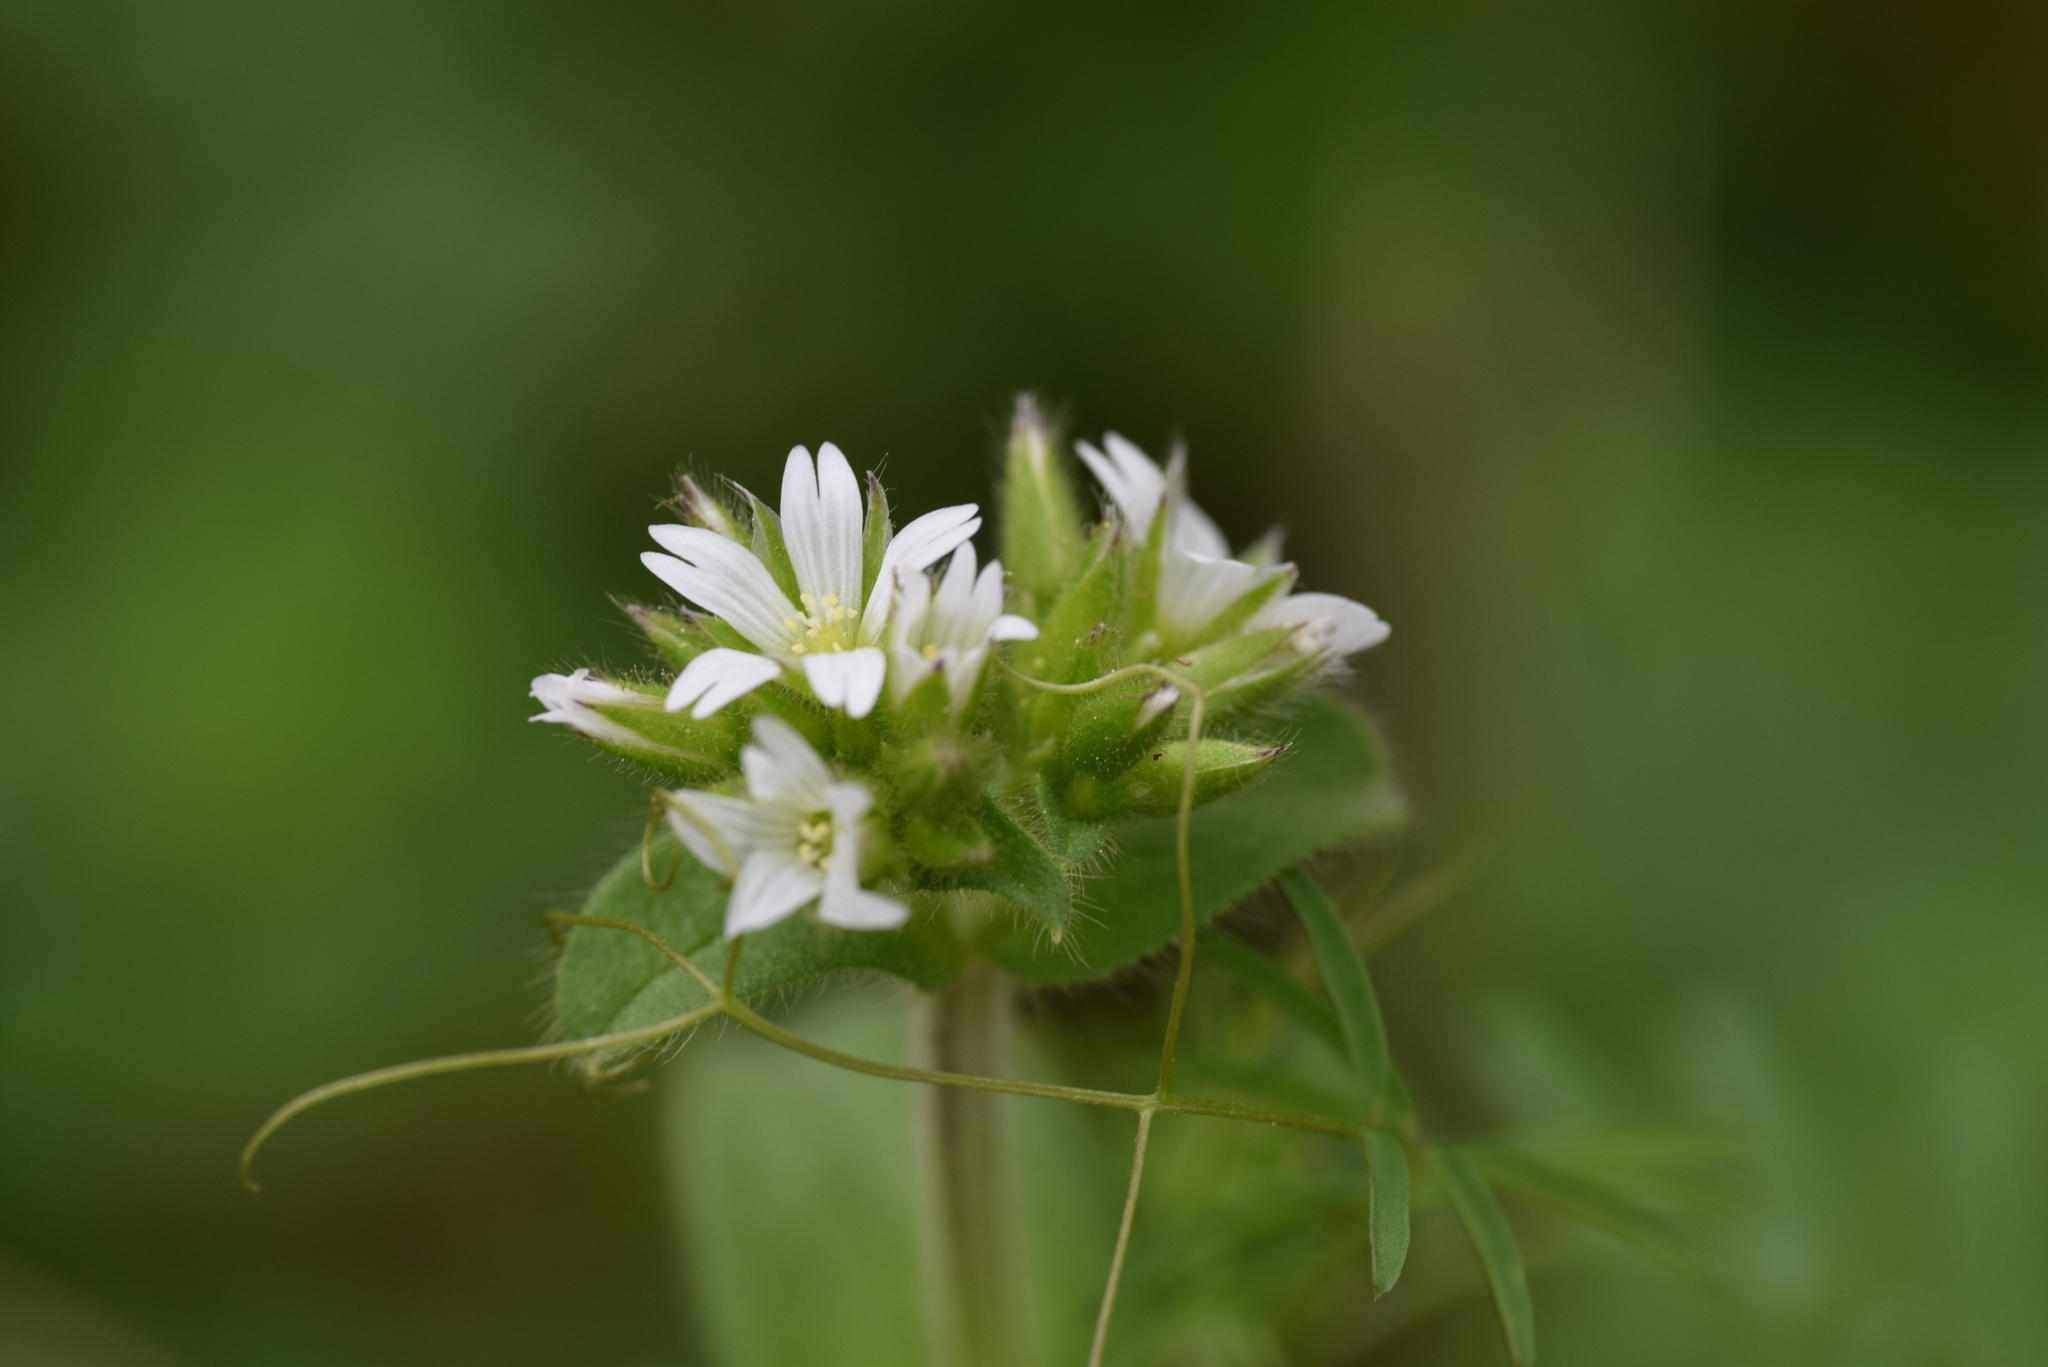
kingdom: Plantae
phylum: Tracheophyta
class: Magnoliopsida
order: Caryophyllales
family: Caryophyllaceae
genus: Cerastium
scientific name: Cerastium glomeratum
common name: Sticky chickweed
